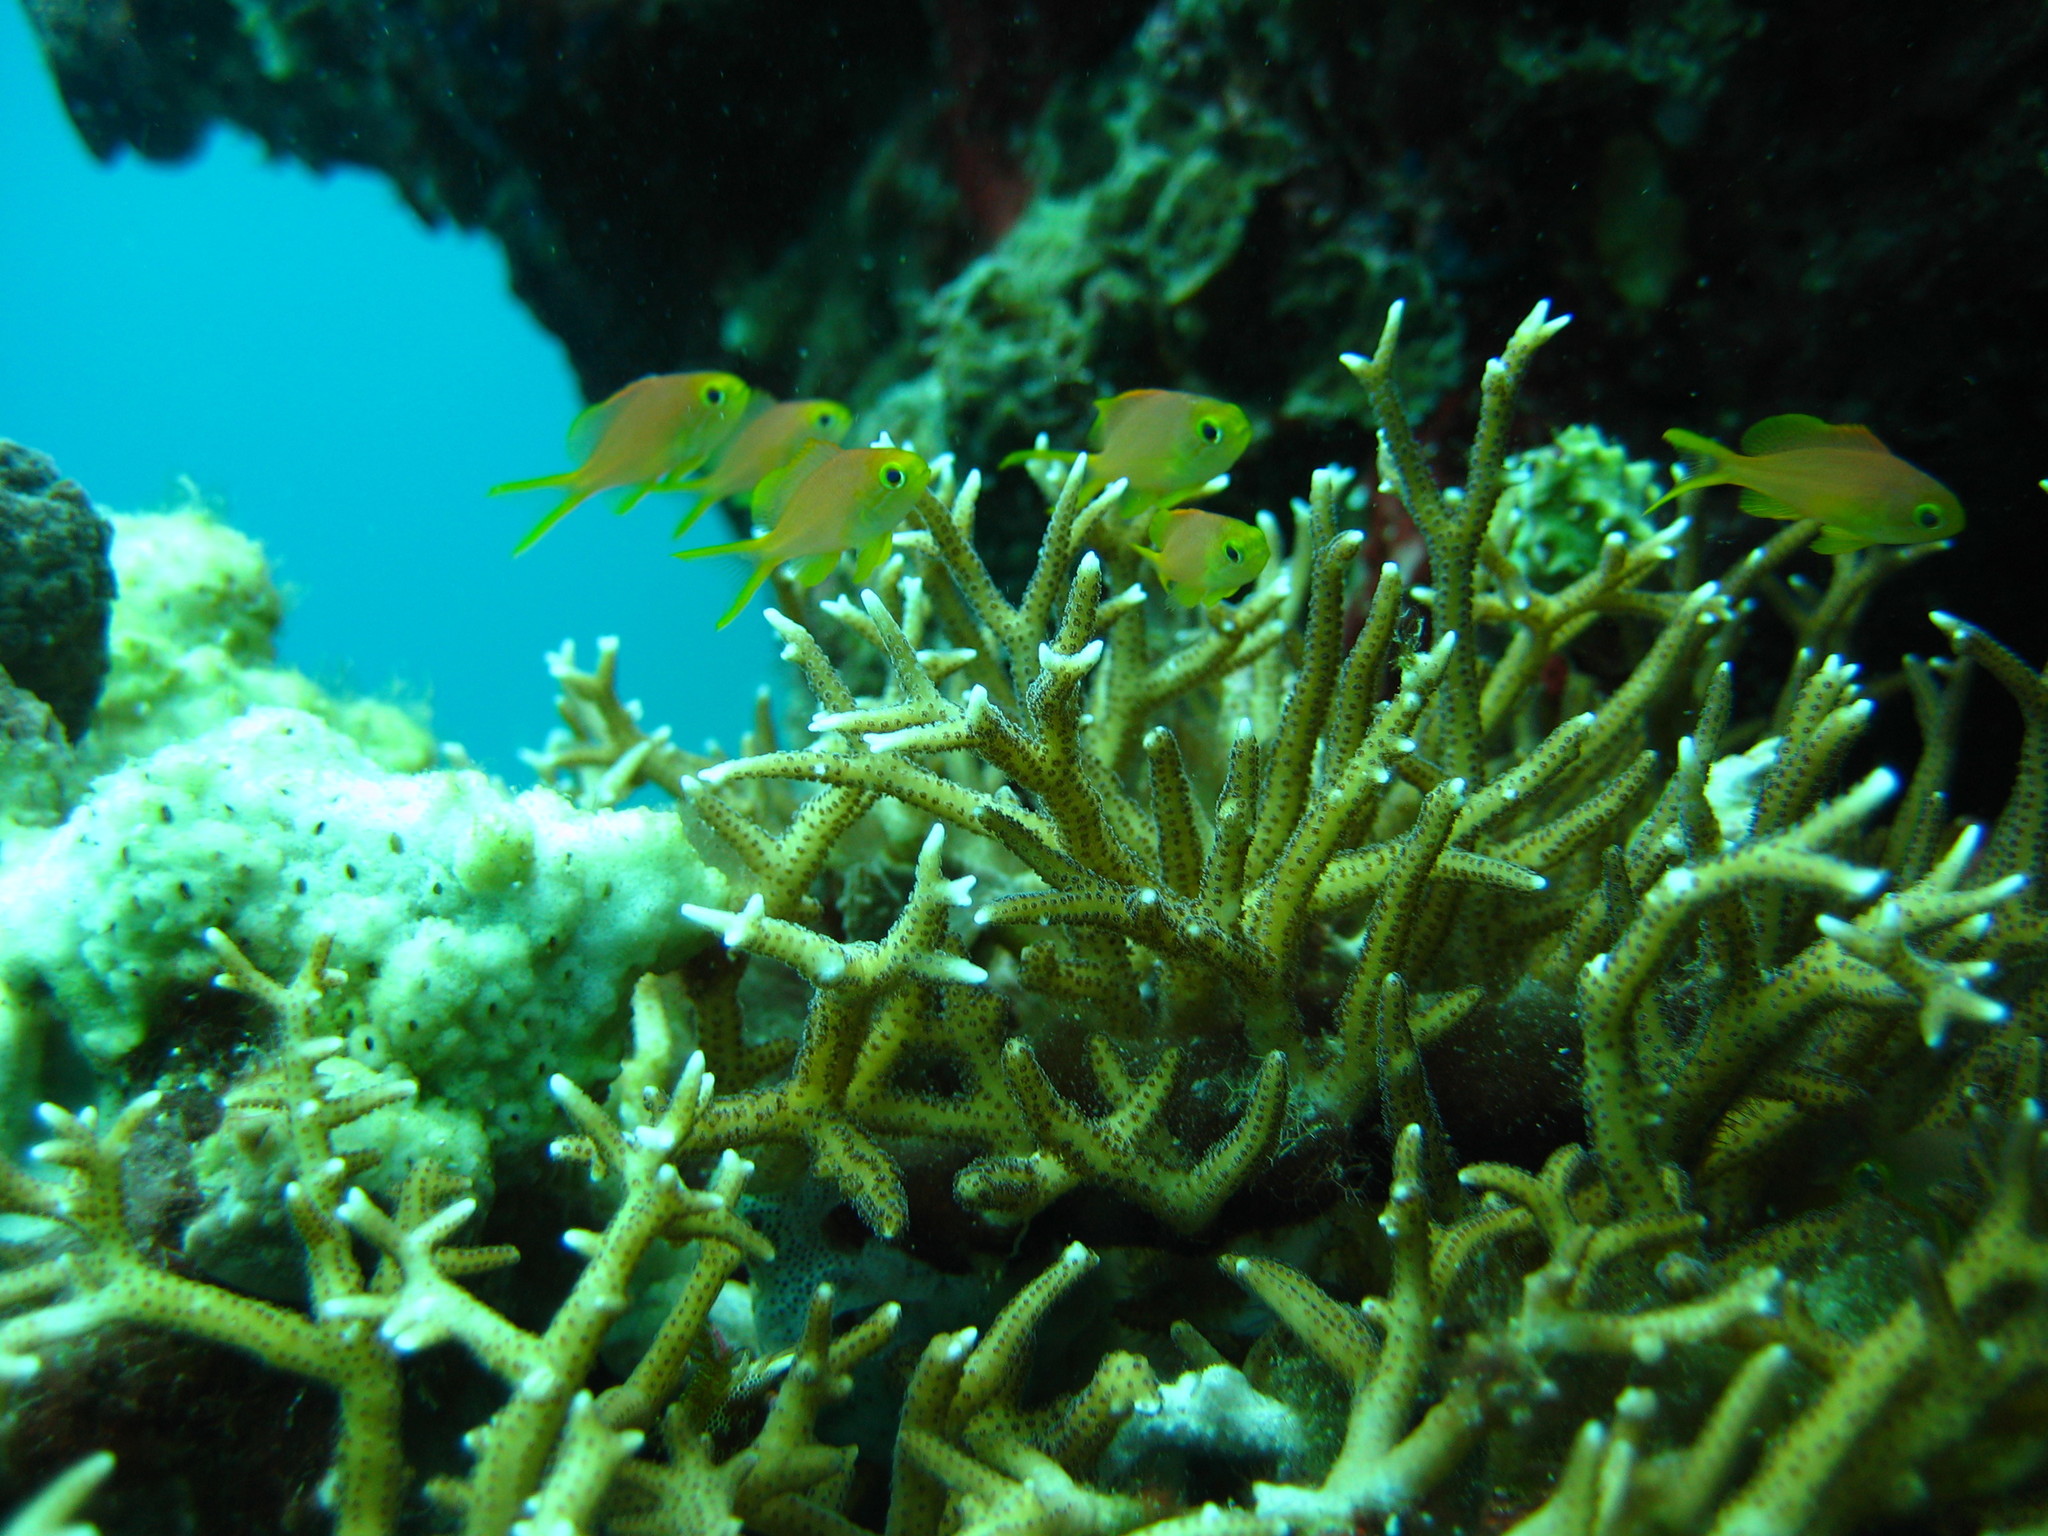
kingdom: Animalia
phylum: Cnidaria
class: Anthozoa
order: Scleractinia
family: Pocilloporidae
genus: Seriatopora
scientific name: Seriatopora hystrix
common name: Bush coral
